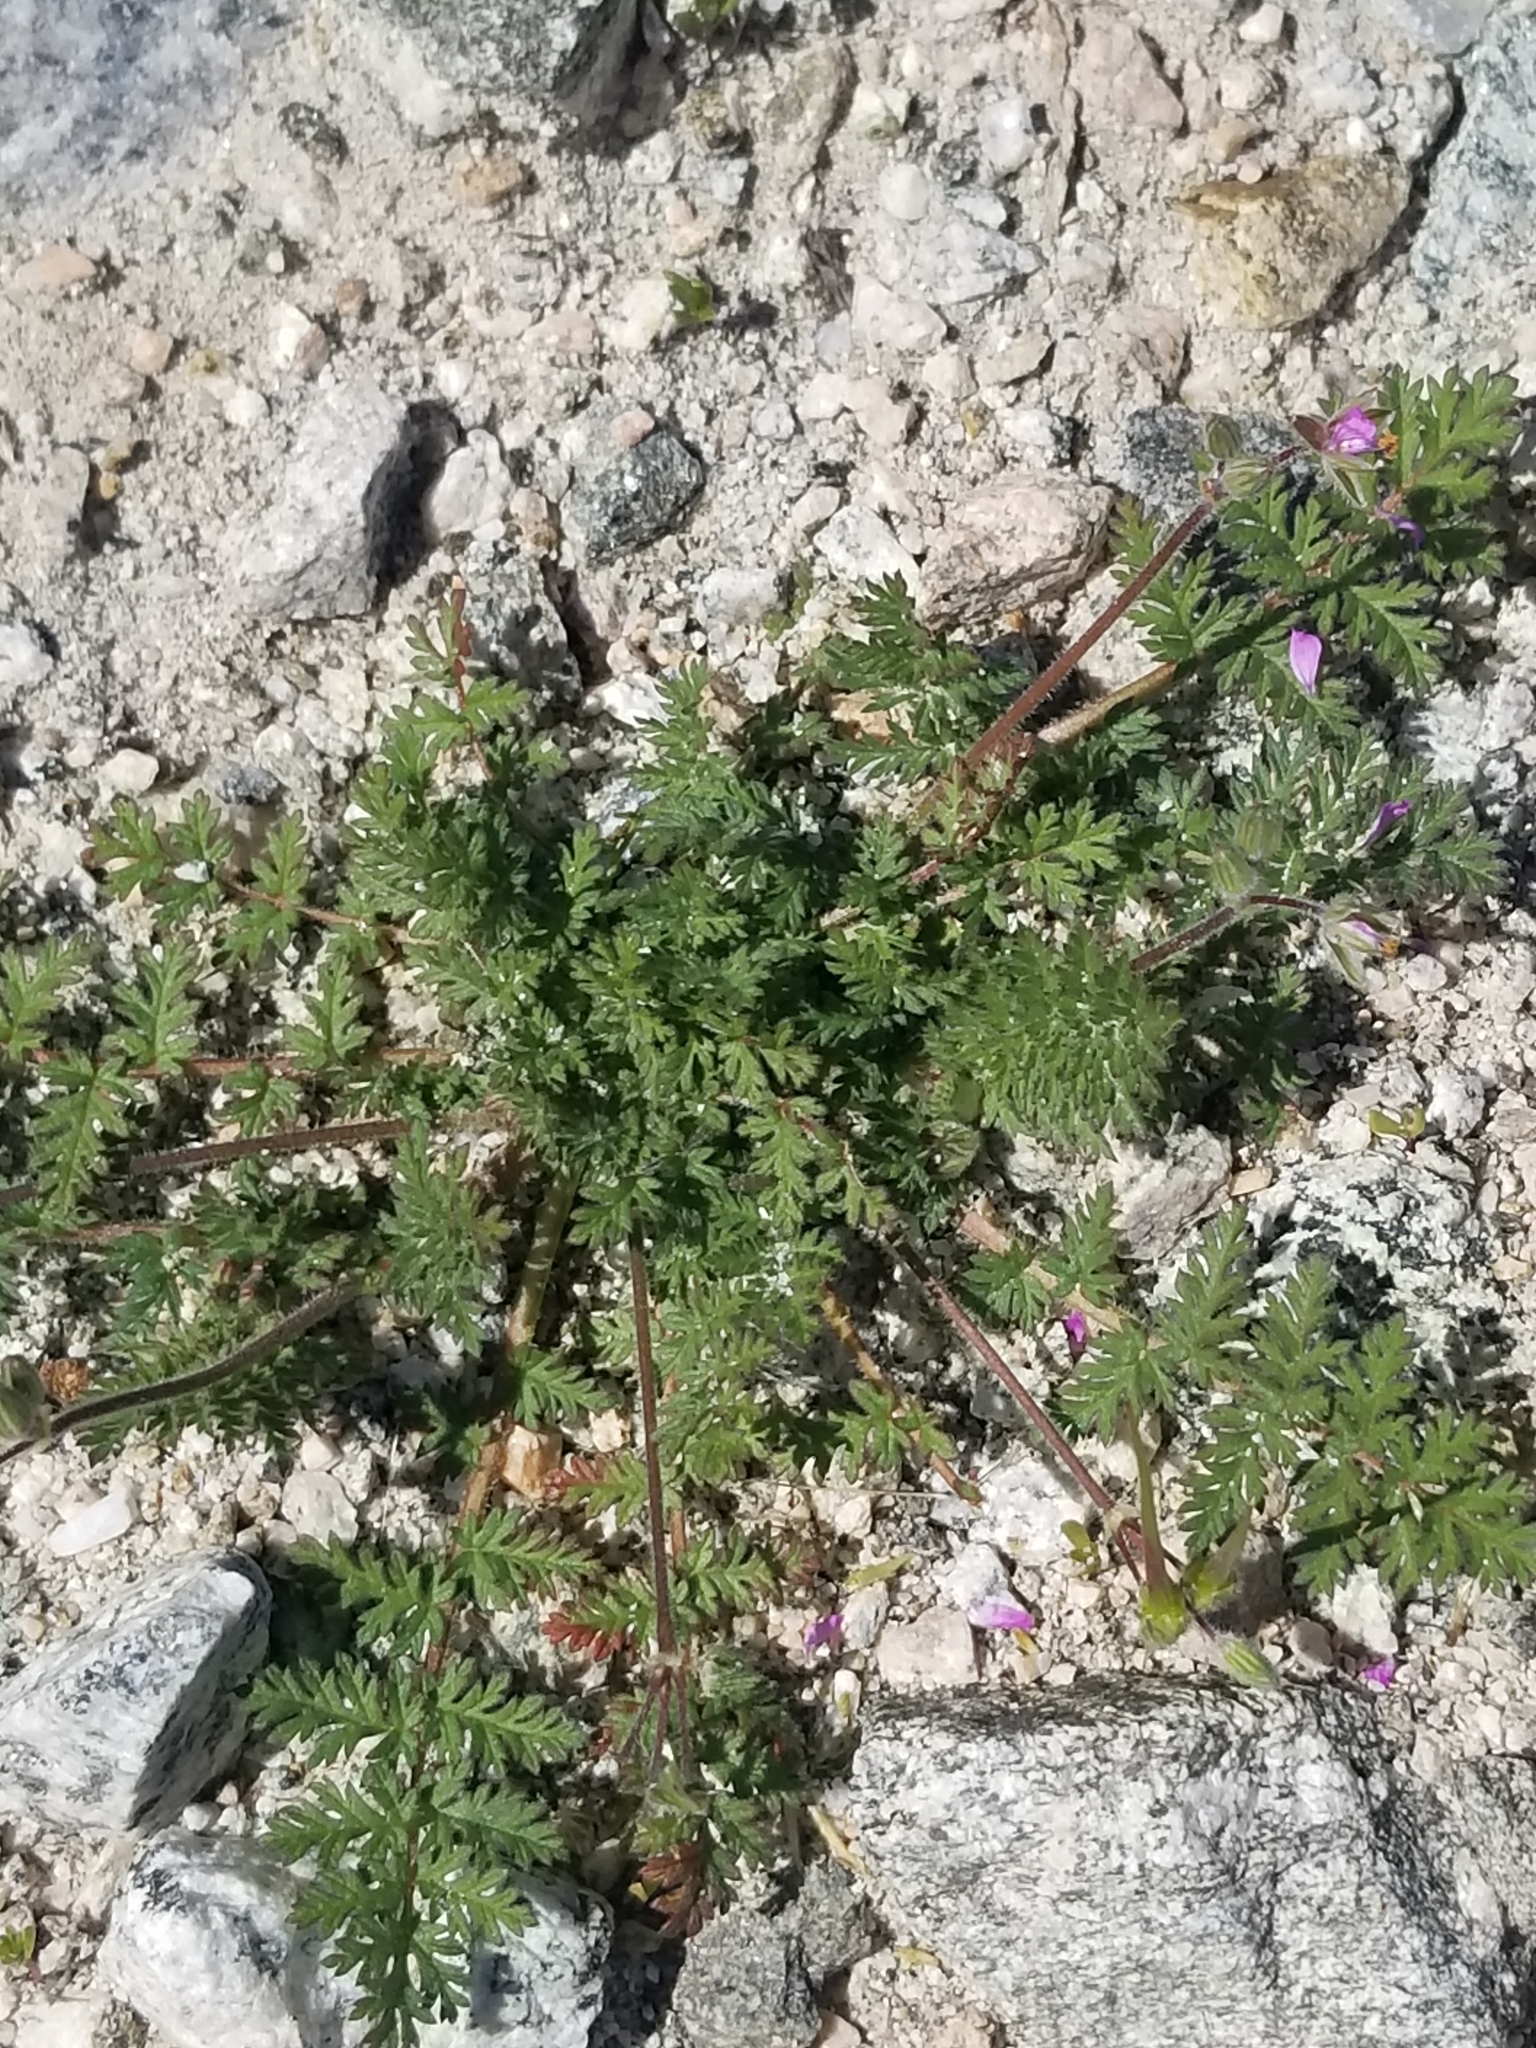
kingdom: Plantae
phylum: Tracheophyta
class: Magnoliopsida
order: Geraniales
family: Geraniaceae
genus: Erodium
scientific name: Erodium cicutarium
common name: Common stork's-bill
